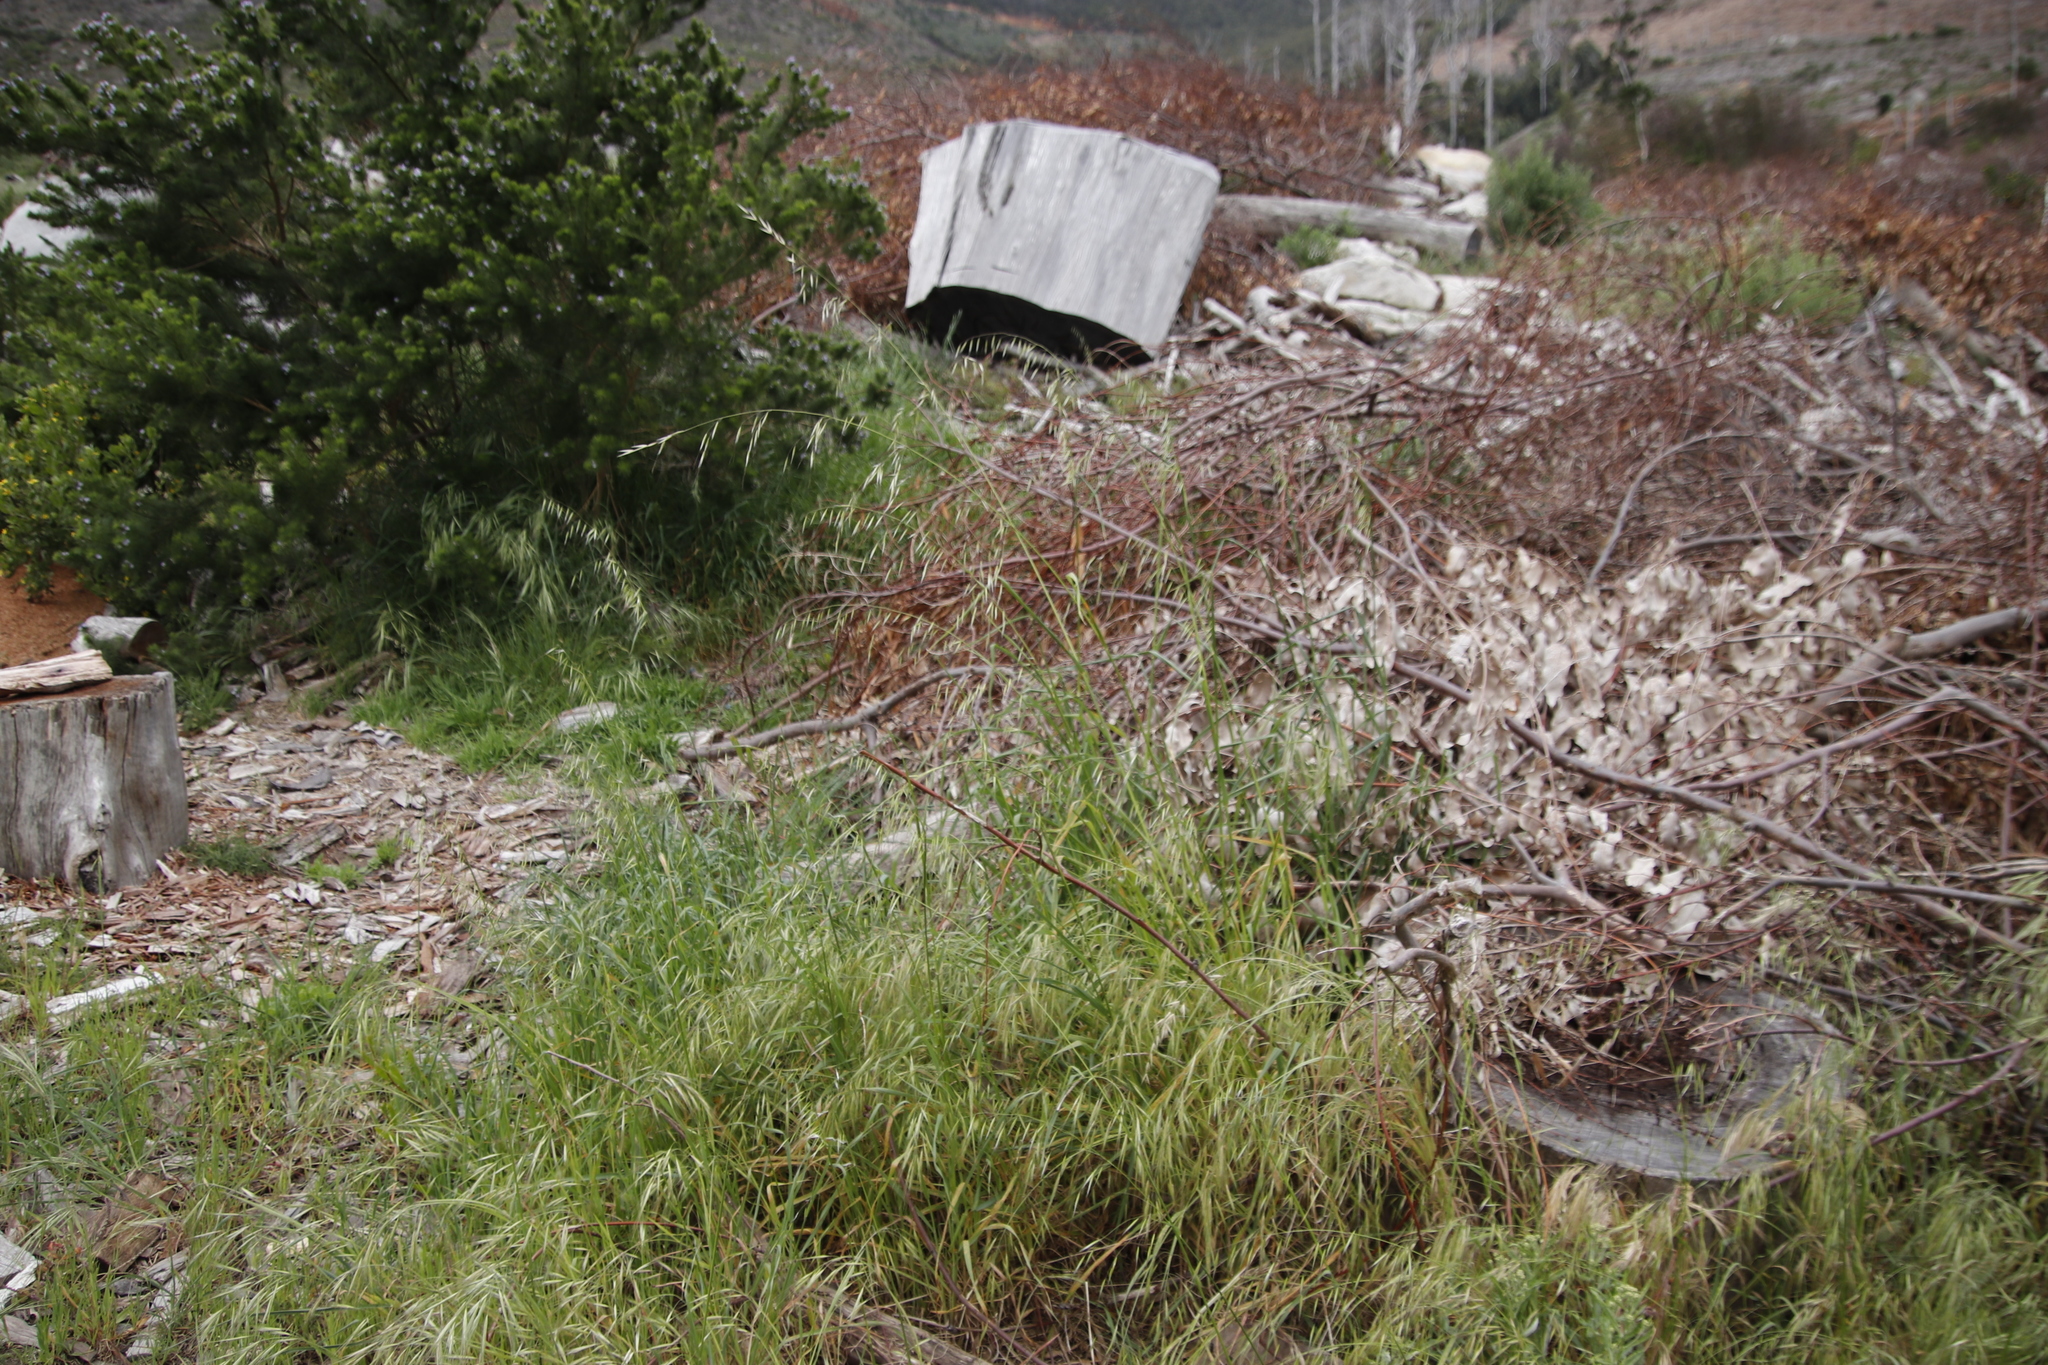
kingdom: Plantae
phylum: Tracheophyta
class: Liliopsida
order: Poales
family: Poaceae
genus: Avena
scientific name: Avena fatua
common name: Wild oat
